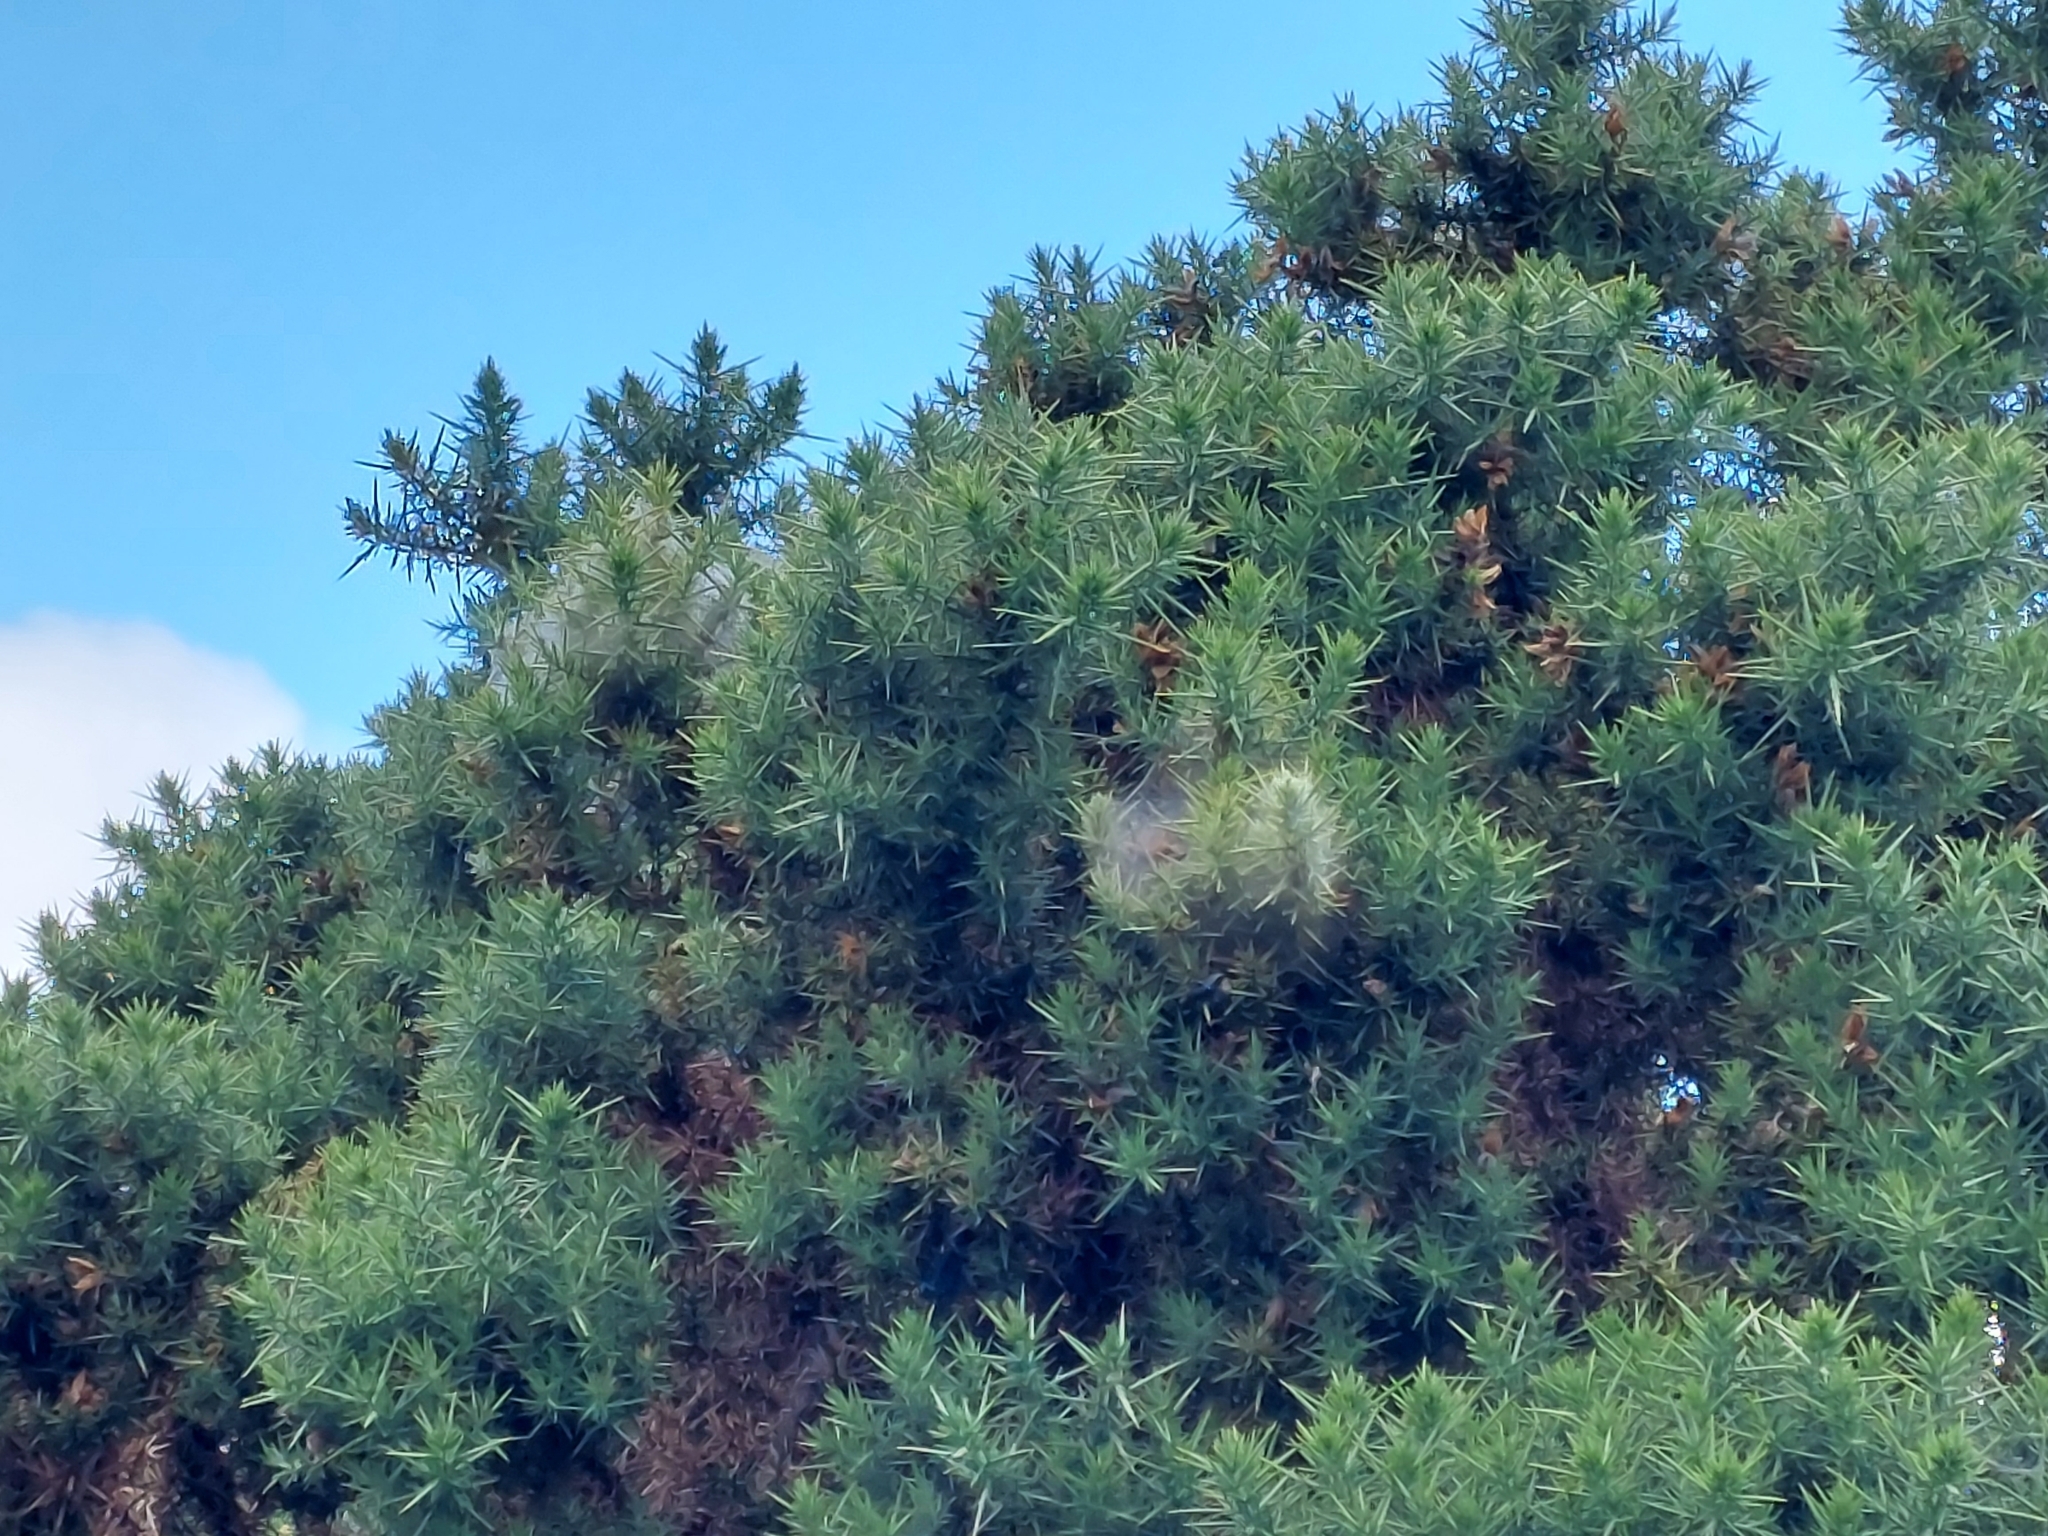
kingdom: Animalia
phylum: Arthropoda
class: Arachnida
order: Trombidiformes
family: Tetranychidae
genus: Tetranychus
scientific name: Tetranychus lintearius
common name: Gorse spider mite
